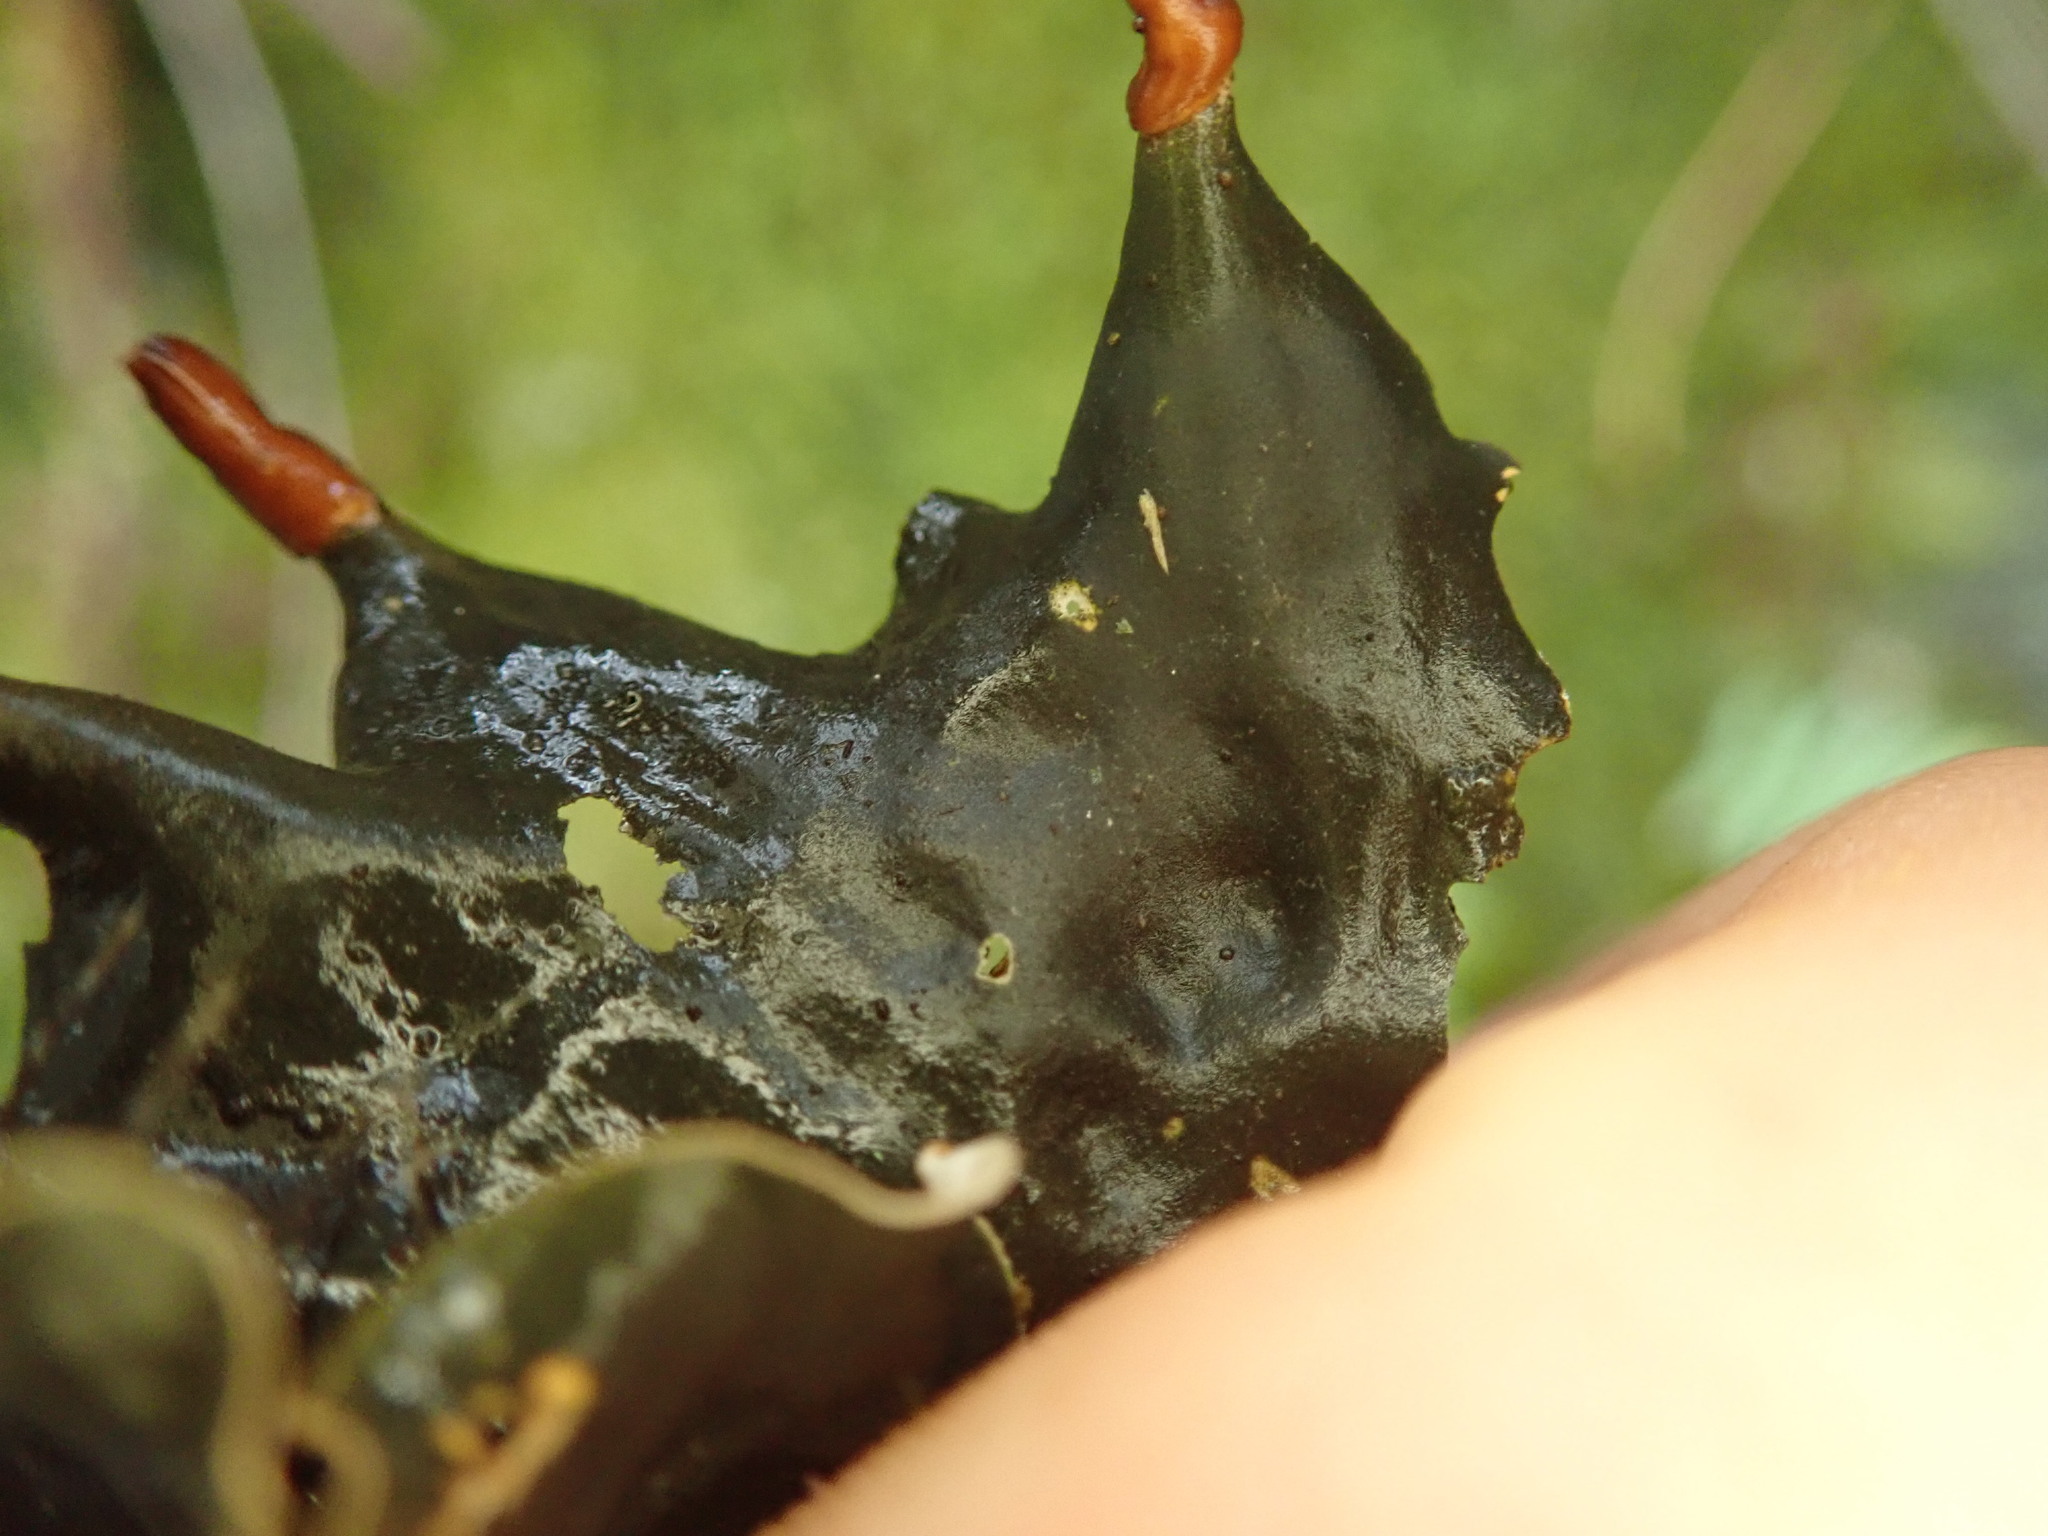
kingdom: Fungi
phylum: Ascomycota
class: Lecanoromycetes
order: Peltigerales
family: Peltigeraceae
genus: Peltigera
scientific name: Peltigera neopolydactyla
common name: Carpet pelt
